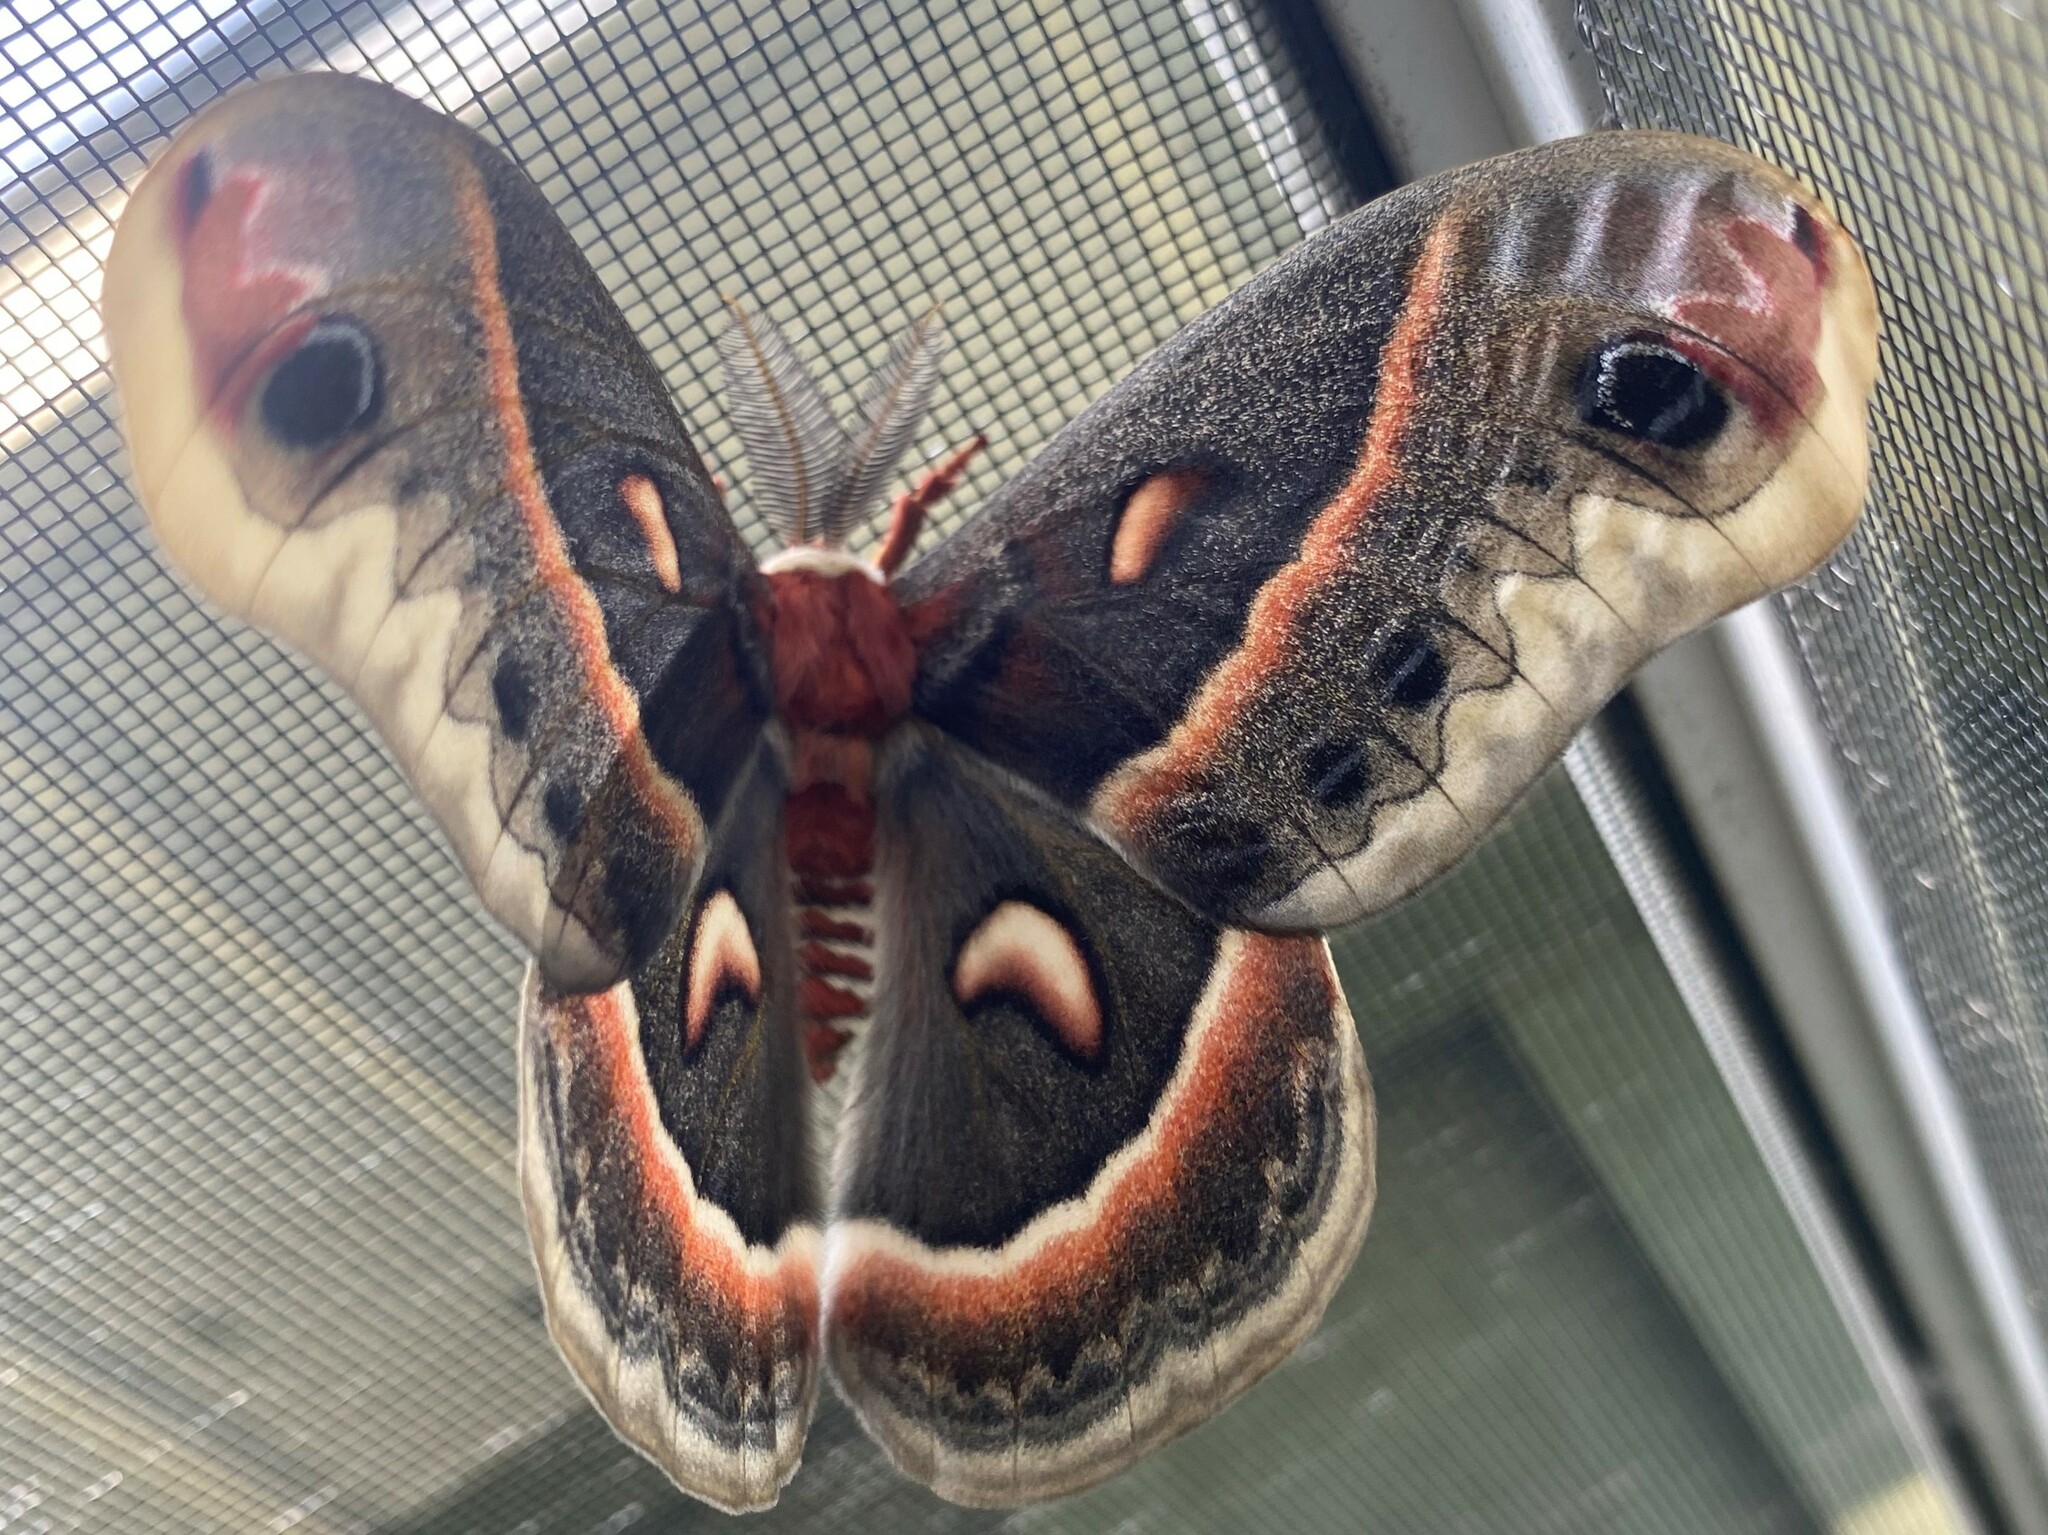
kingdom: Animalia
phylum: Arthropoda
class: Insecta
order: Lepidoptera
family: Saturniidae
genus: Hyalophora
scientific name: Hyalophora cecropia
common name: Cecropia silkmoth
